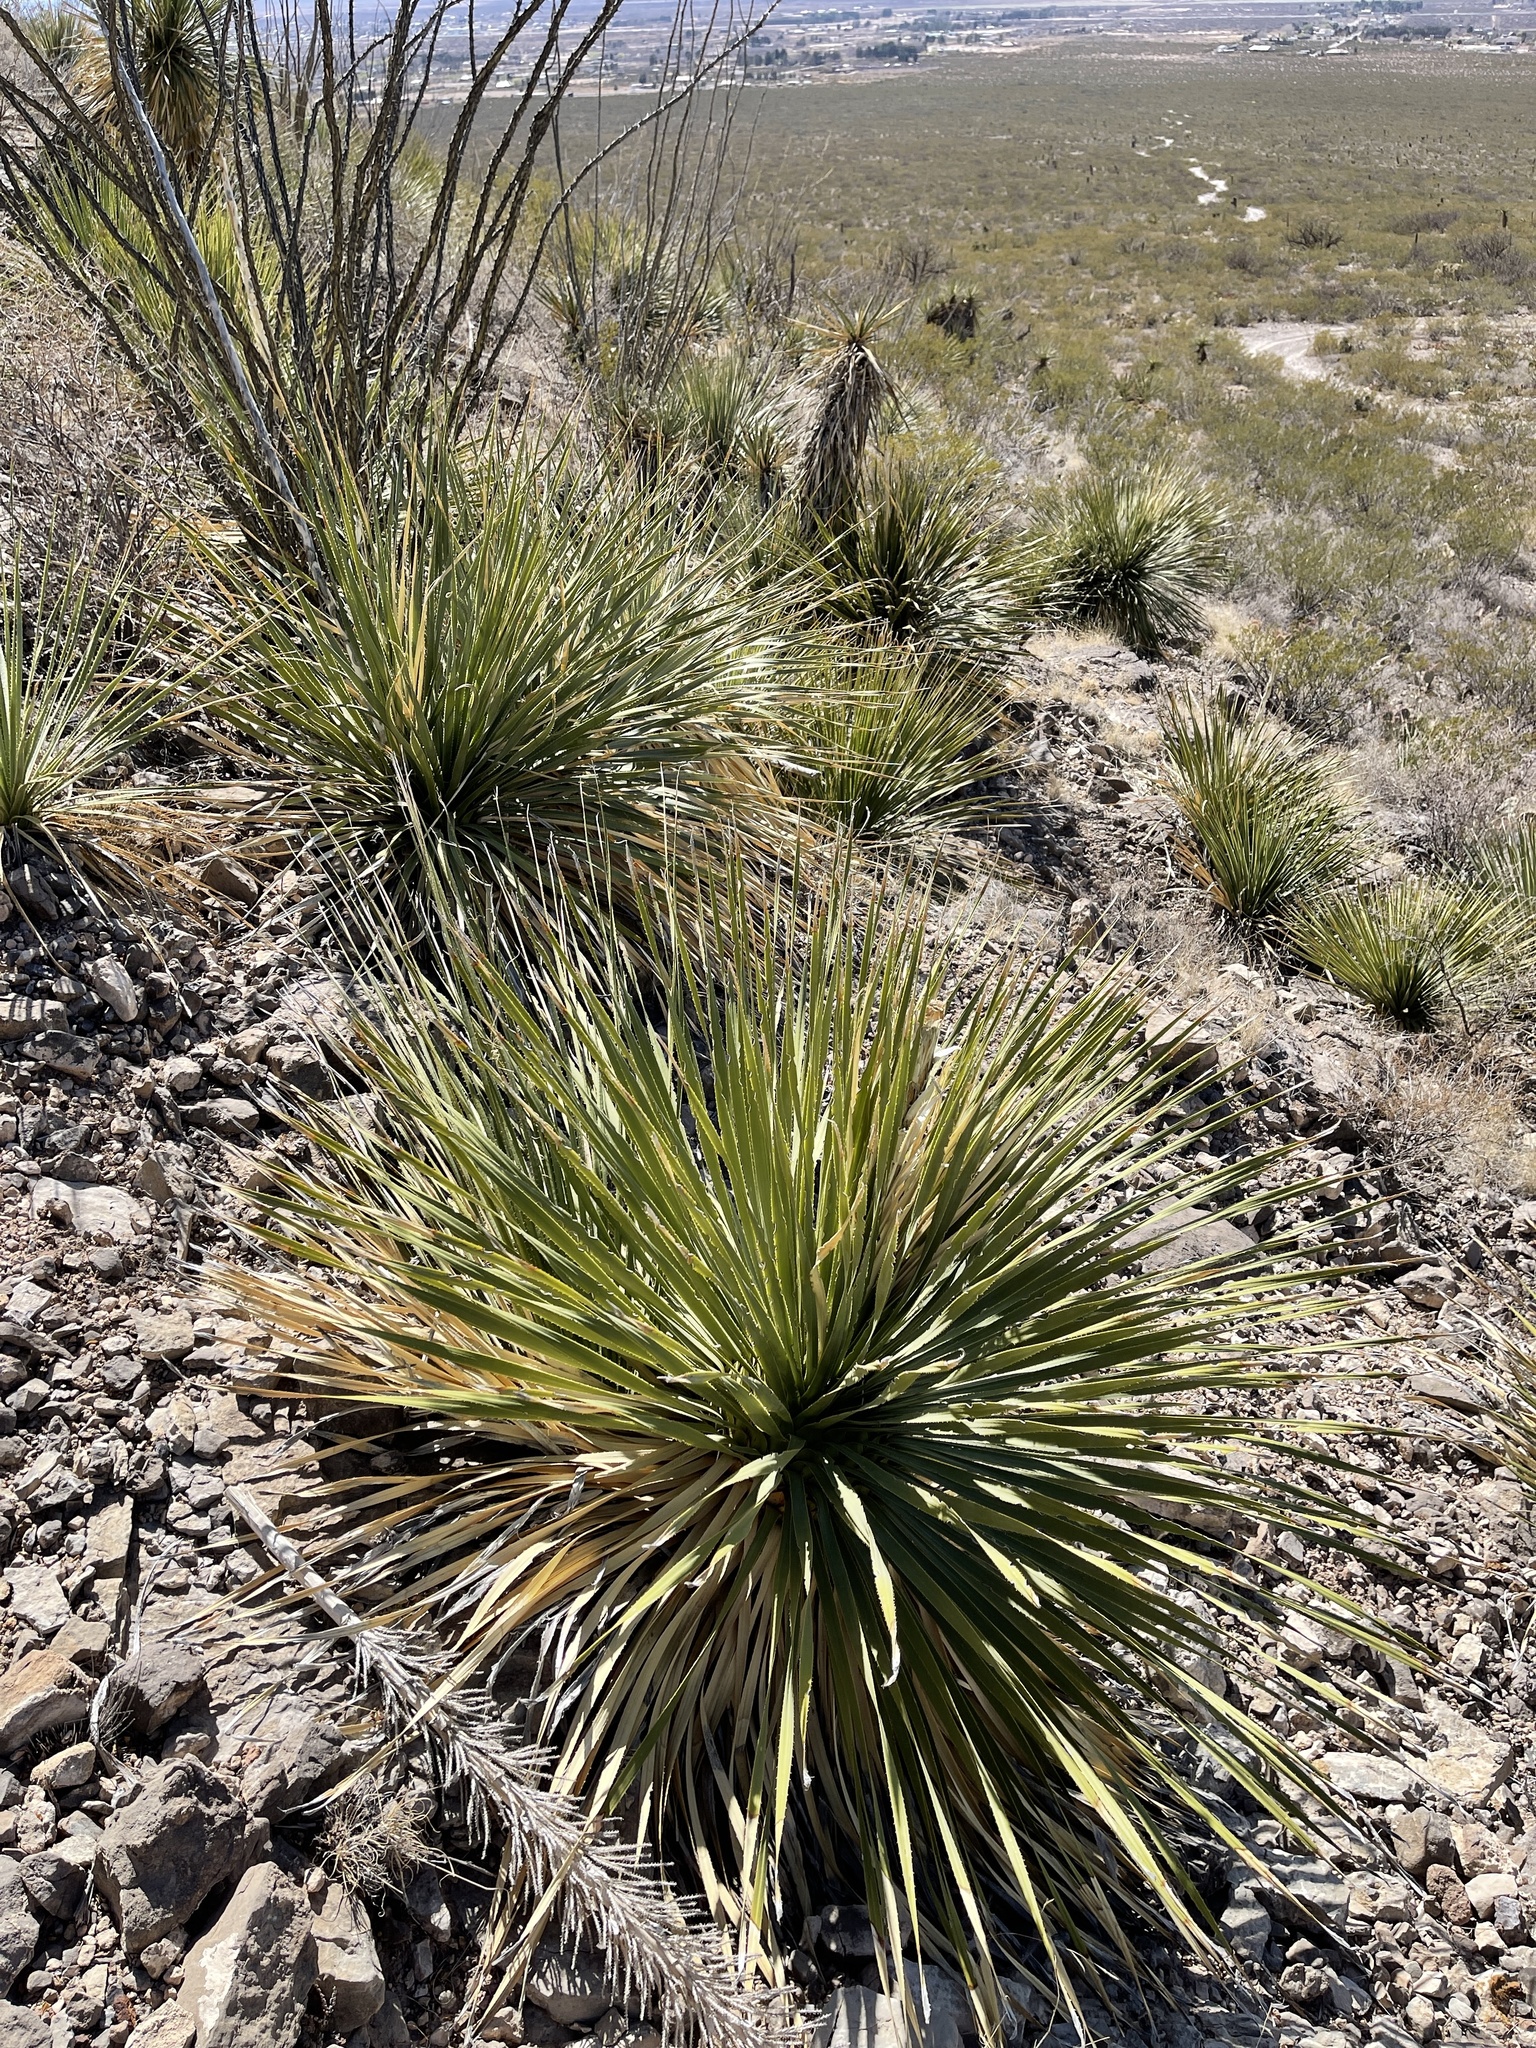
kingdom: Plantae
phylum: Tracheophyta
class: Liliopsida
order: Asparagales
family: Asparagaceae
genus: Dasylirion
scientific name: Dasylirion wheeleri
